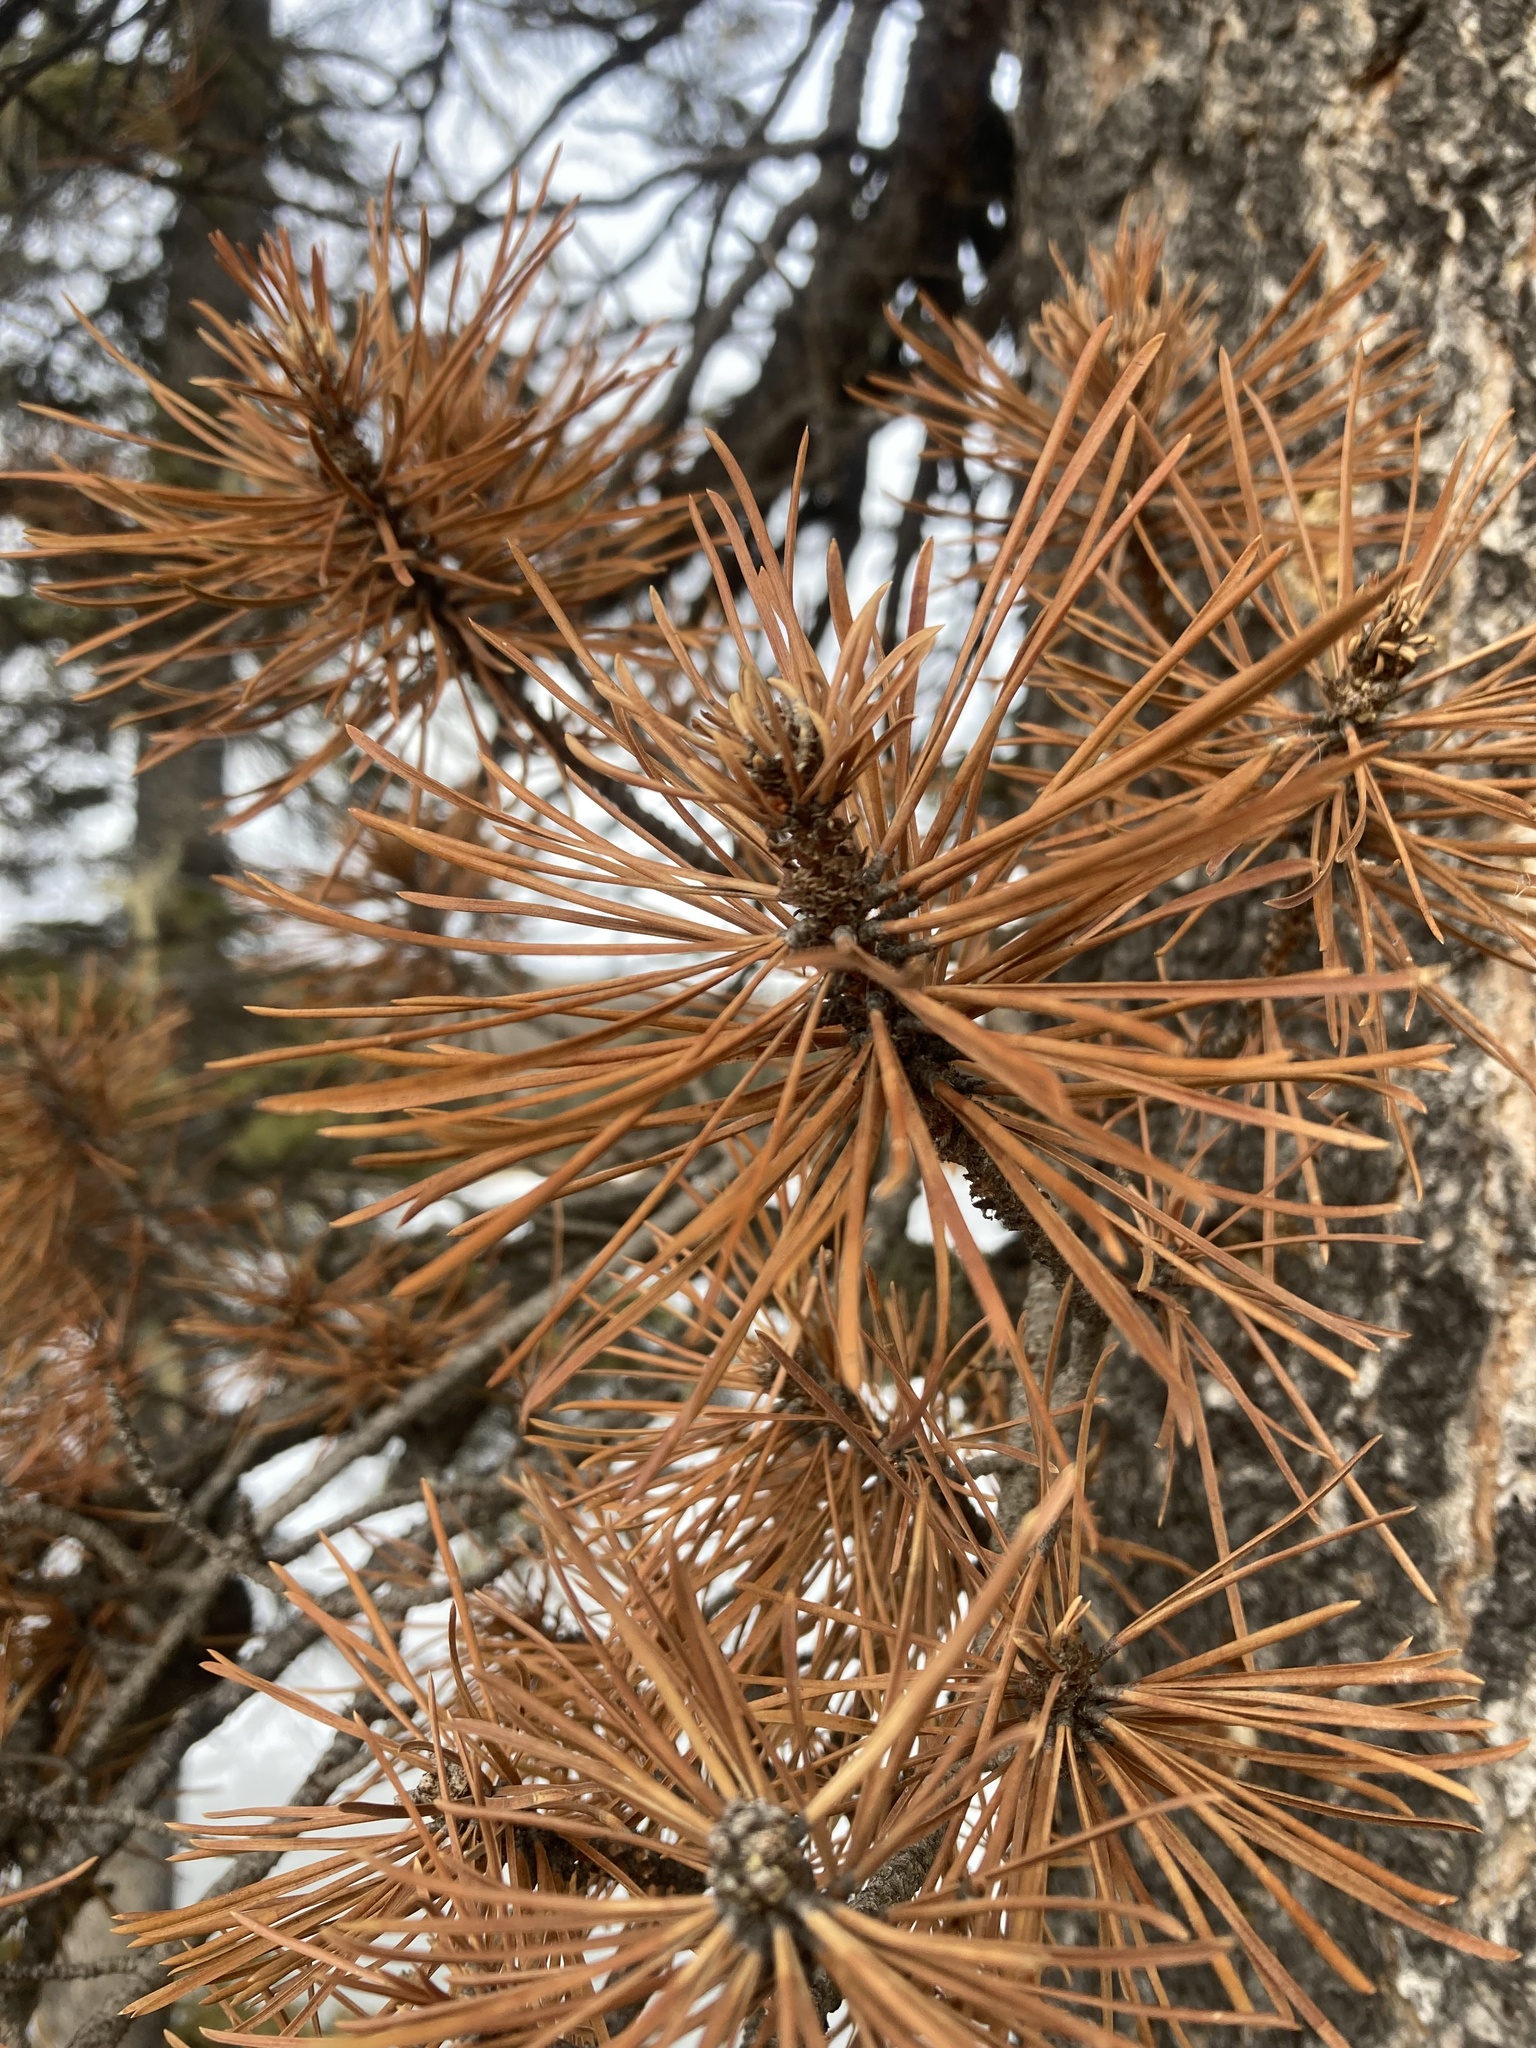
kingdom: Plantae
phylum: Tracheophyta
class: Pinopsida
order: Pinales
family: Pinaceae
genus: Pinus
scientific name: Pinus contorta
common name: Lodgepole pine
